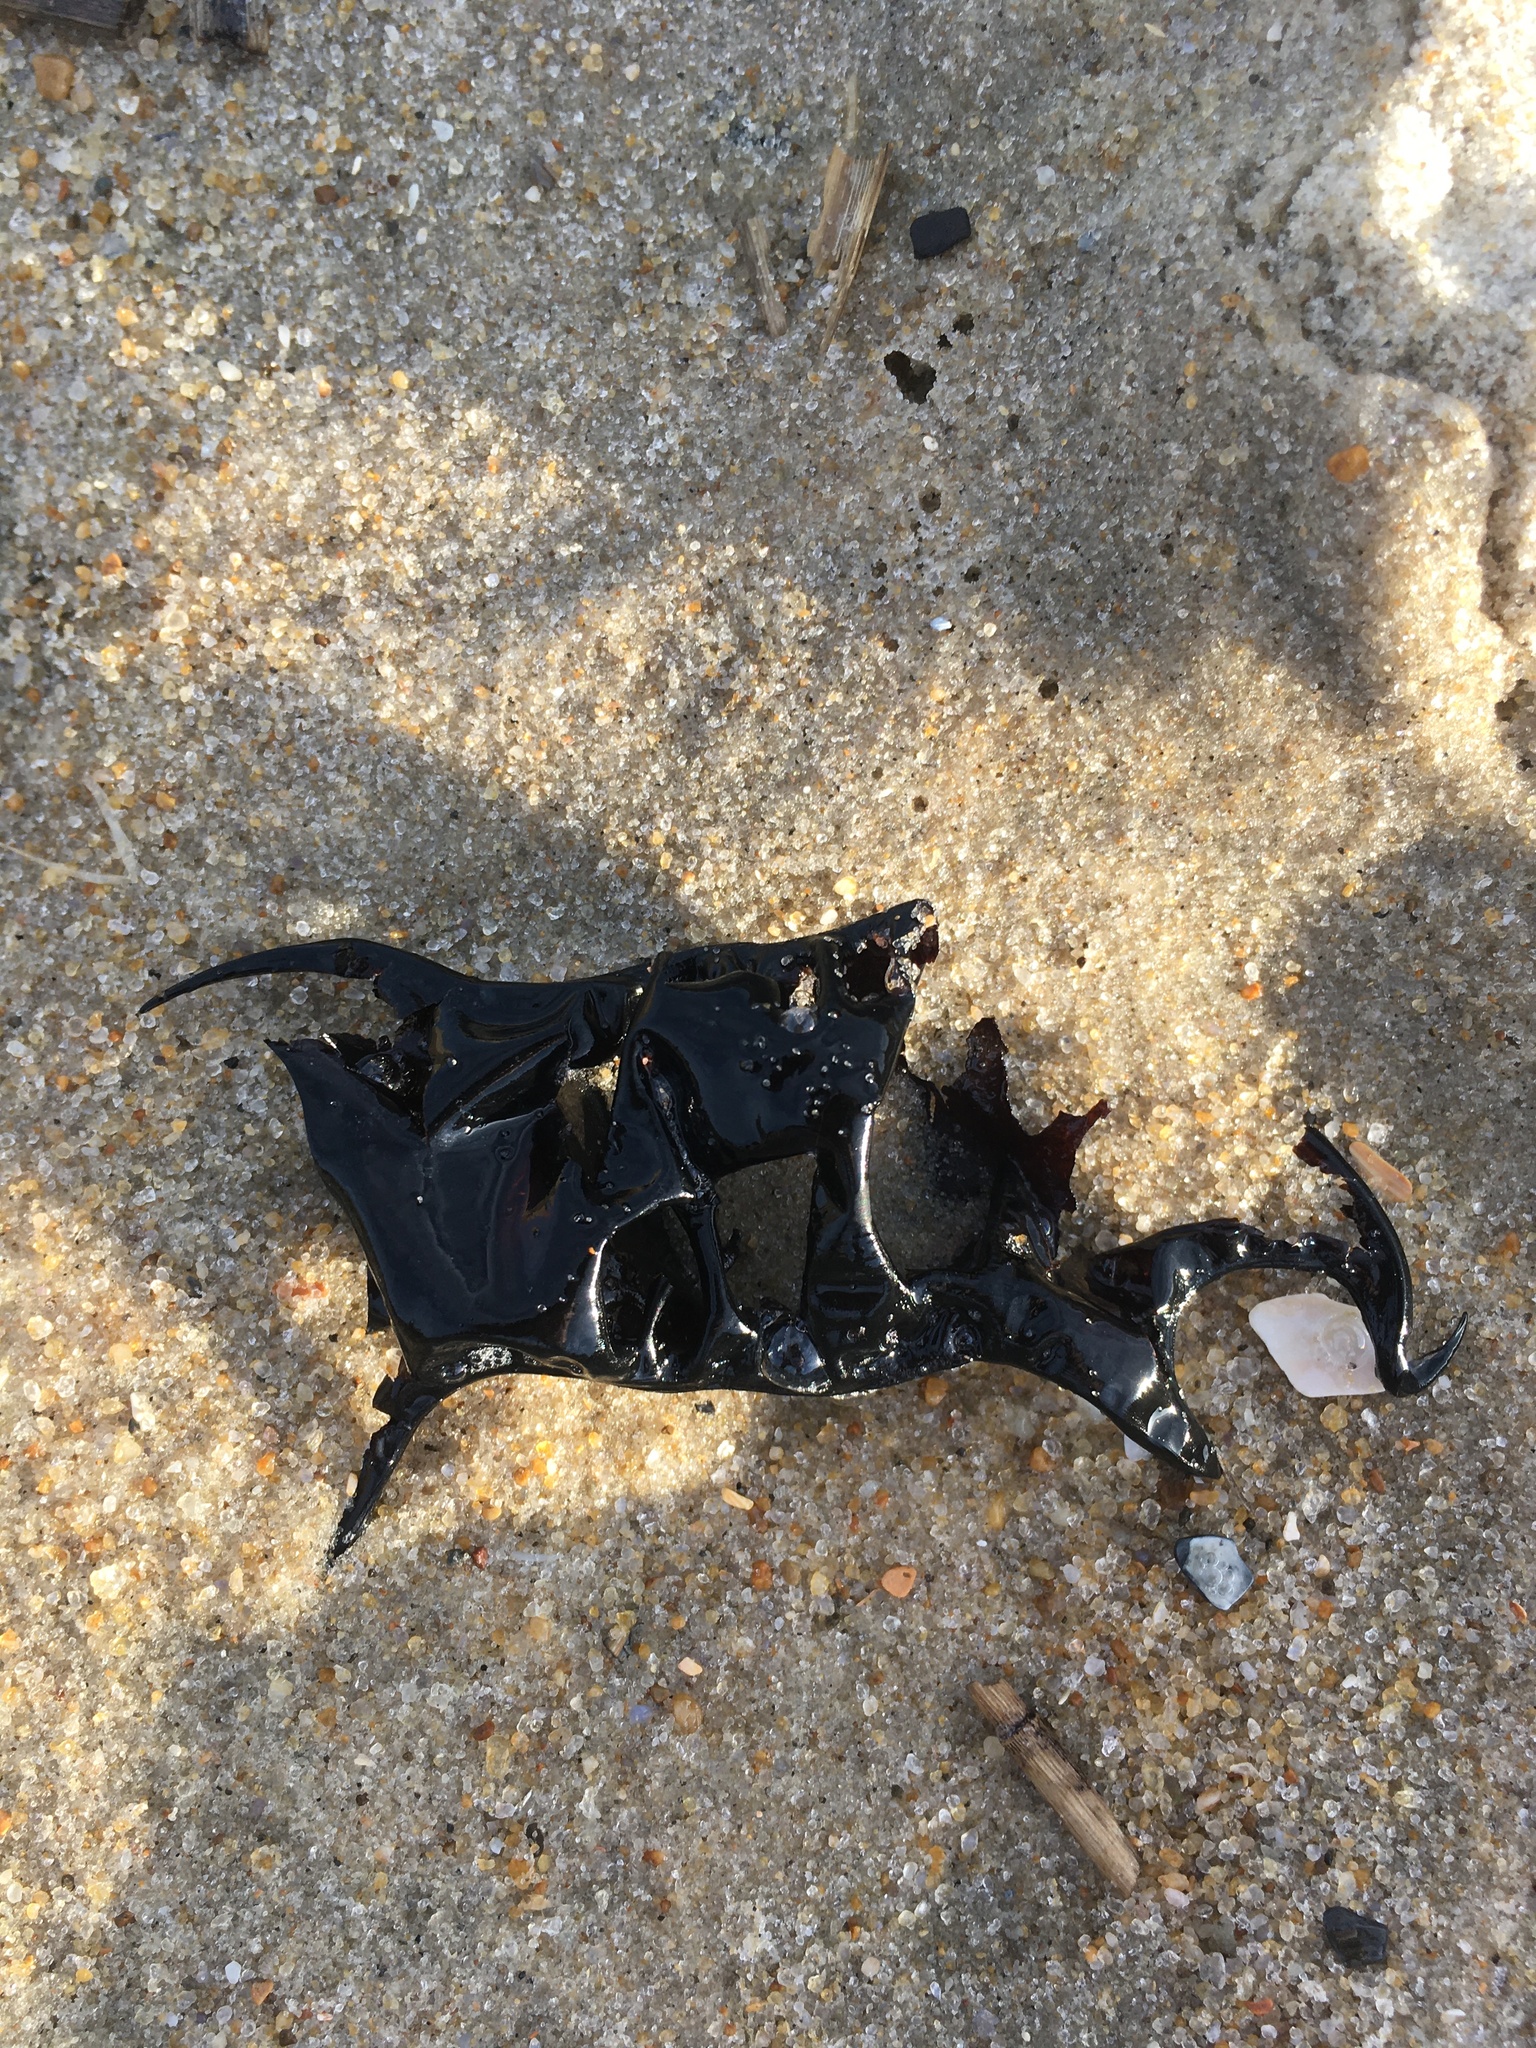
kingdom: Animalia
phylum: Chordata
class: Elasmobranchii
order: Rajiformes
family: Rajidae
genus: Raja
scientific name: Raja eglanteria
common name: Clearnose skate
